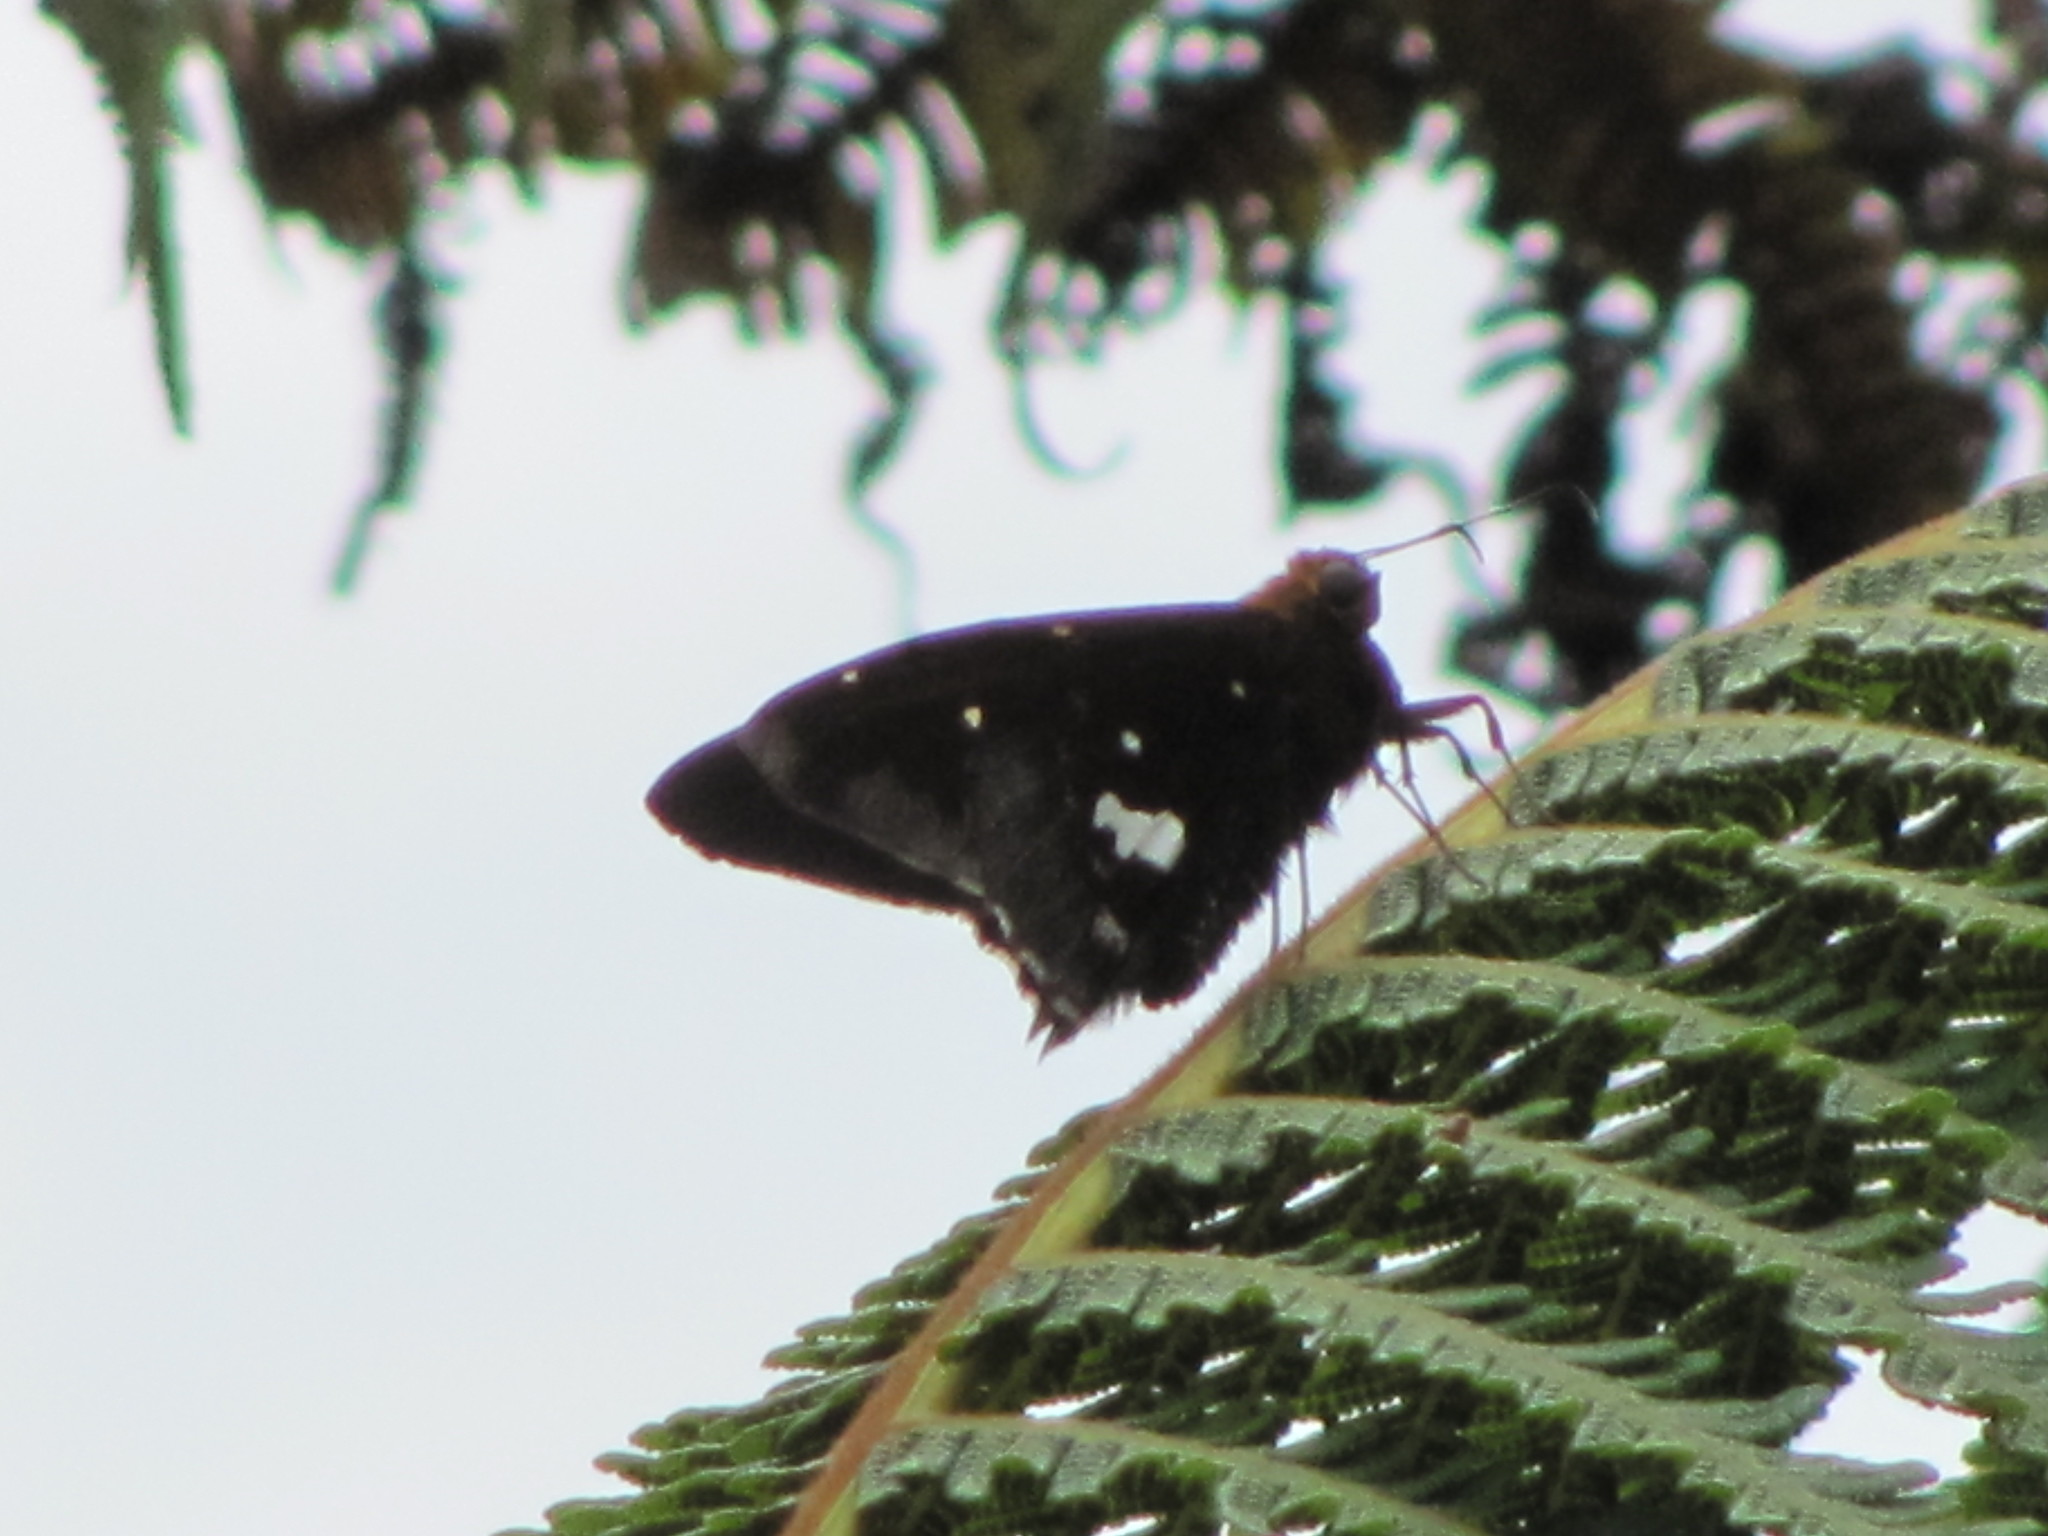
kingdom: Animalia
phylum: Arthropoda
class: Insecta
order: Lepidoptera
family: Hesperiidae
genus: Epargyreus
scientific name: Epargyreus clarus
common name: Silver-spotted skipper
